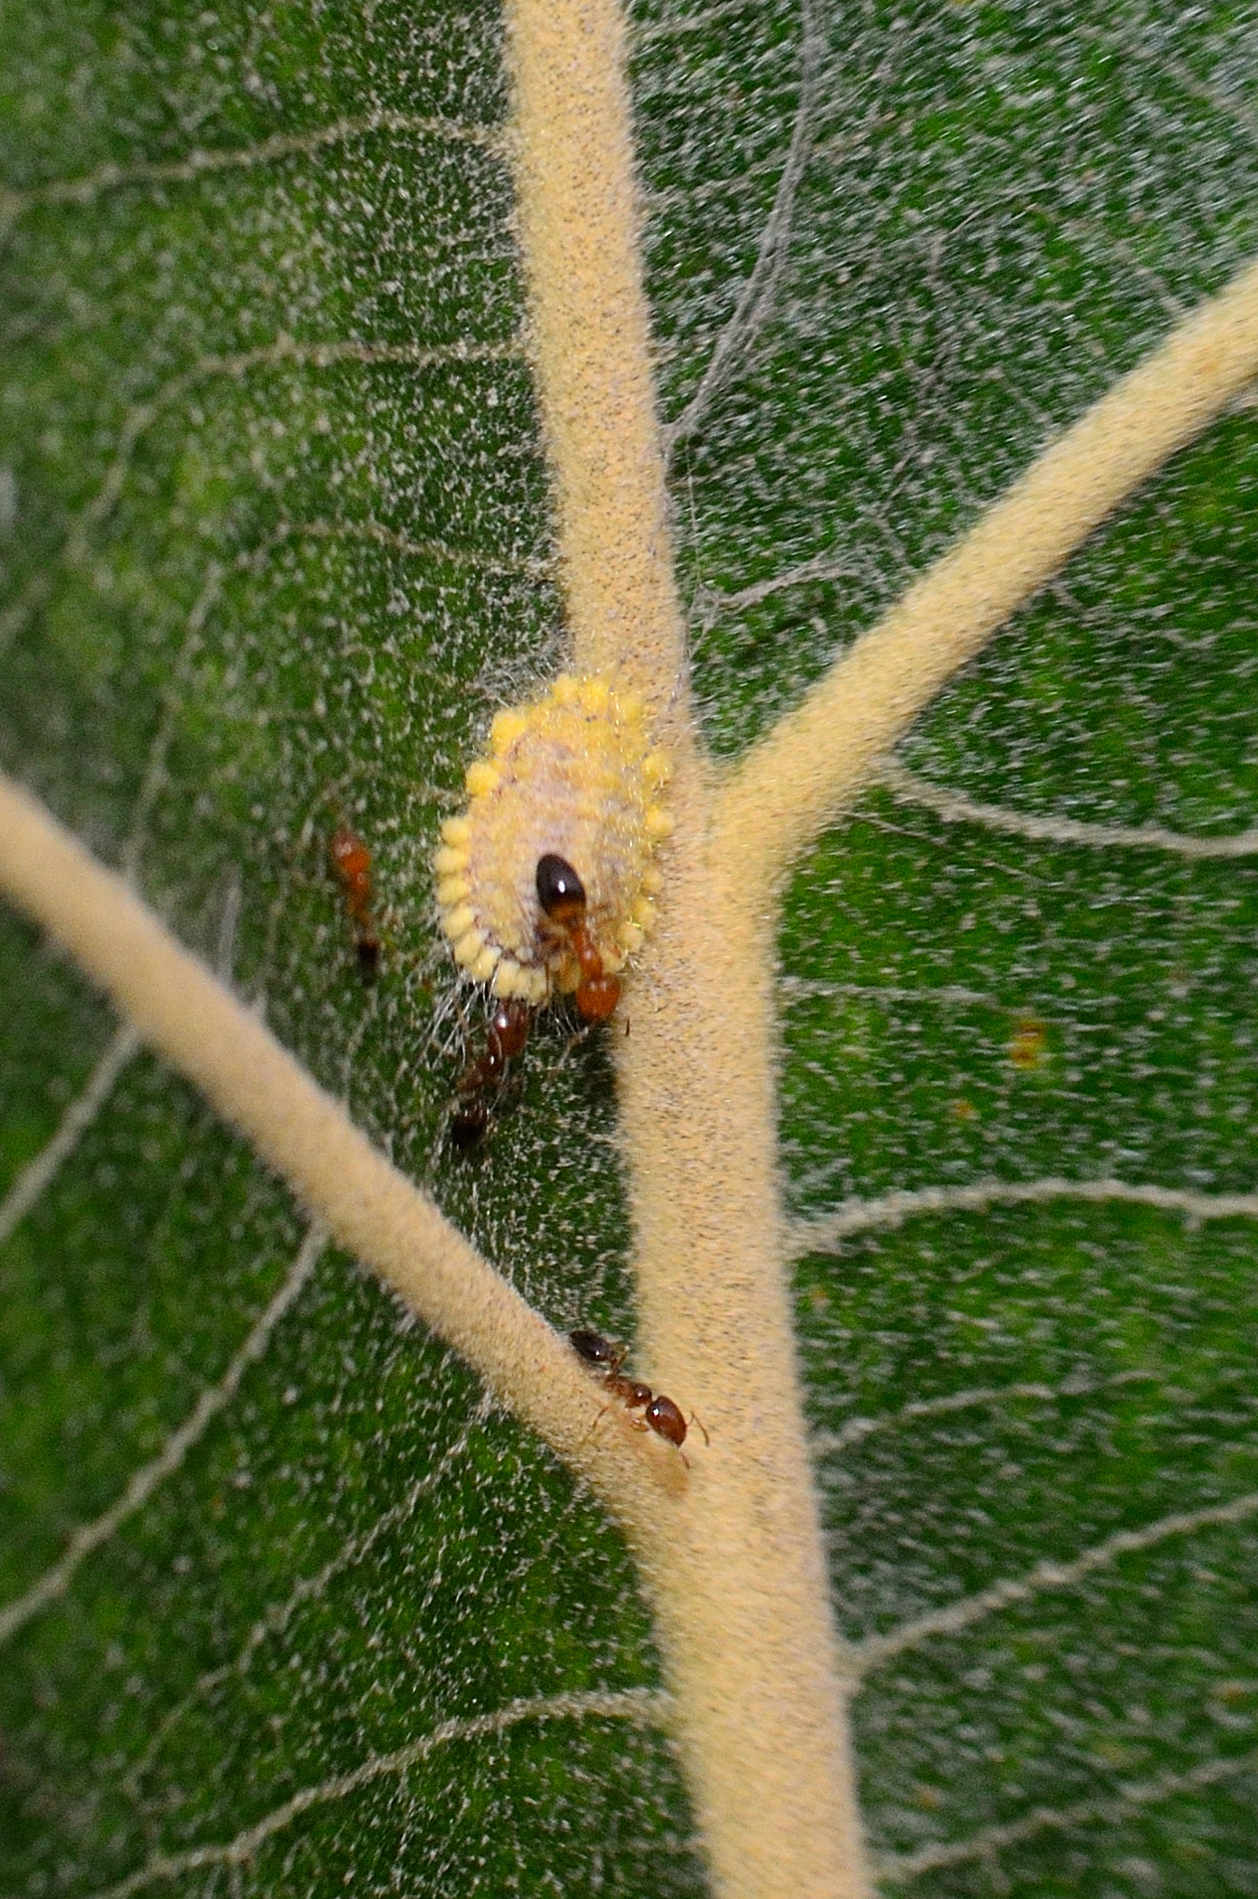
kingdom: Animalia
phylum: Arthropoda
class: Insecta
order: Hemiptera
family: Margarodidae
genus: Icerya
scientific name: Icerya seychellarum
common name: Iceplant scale
